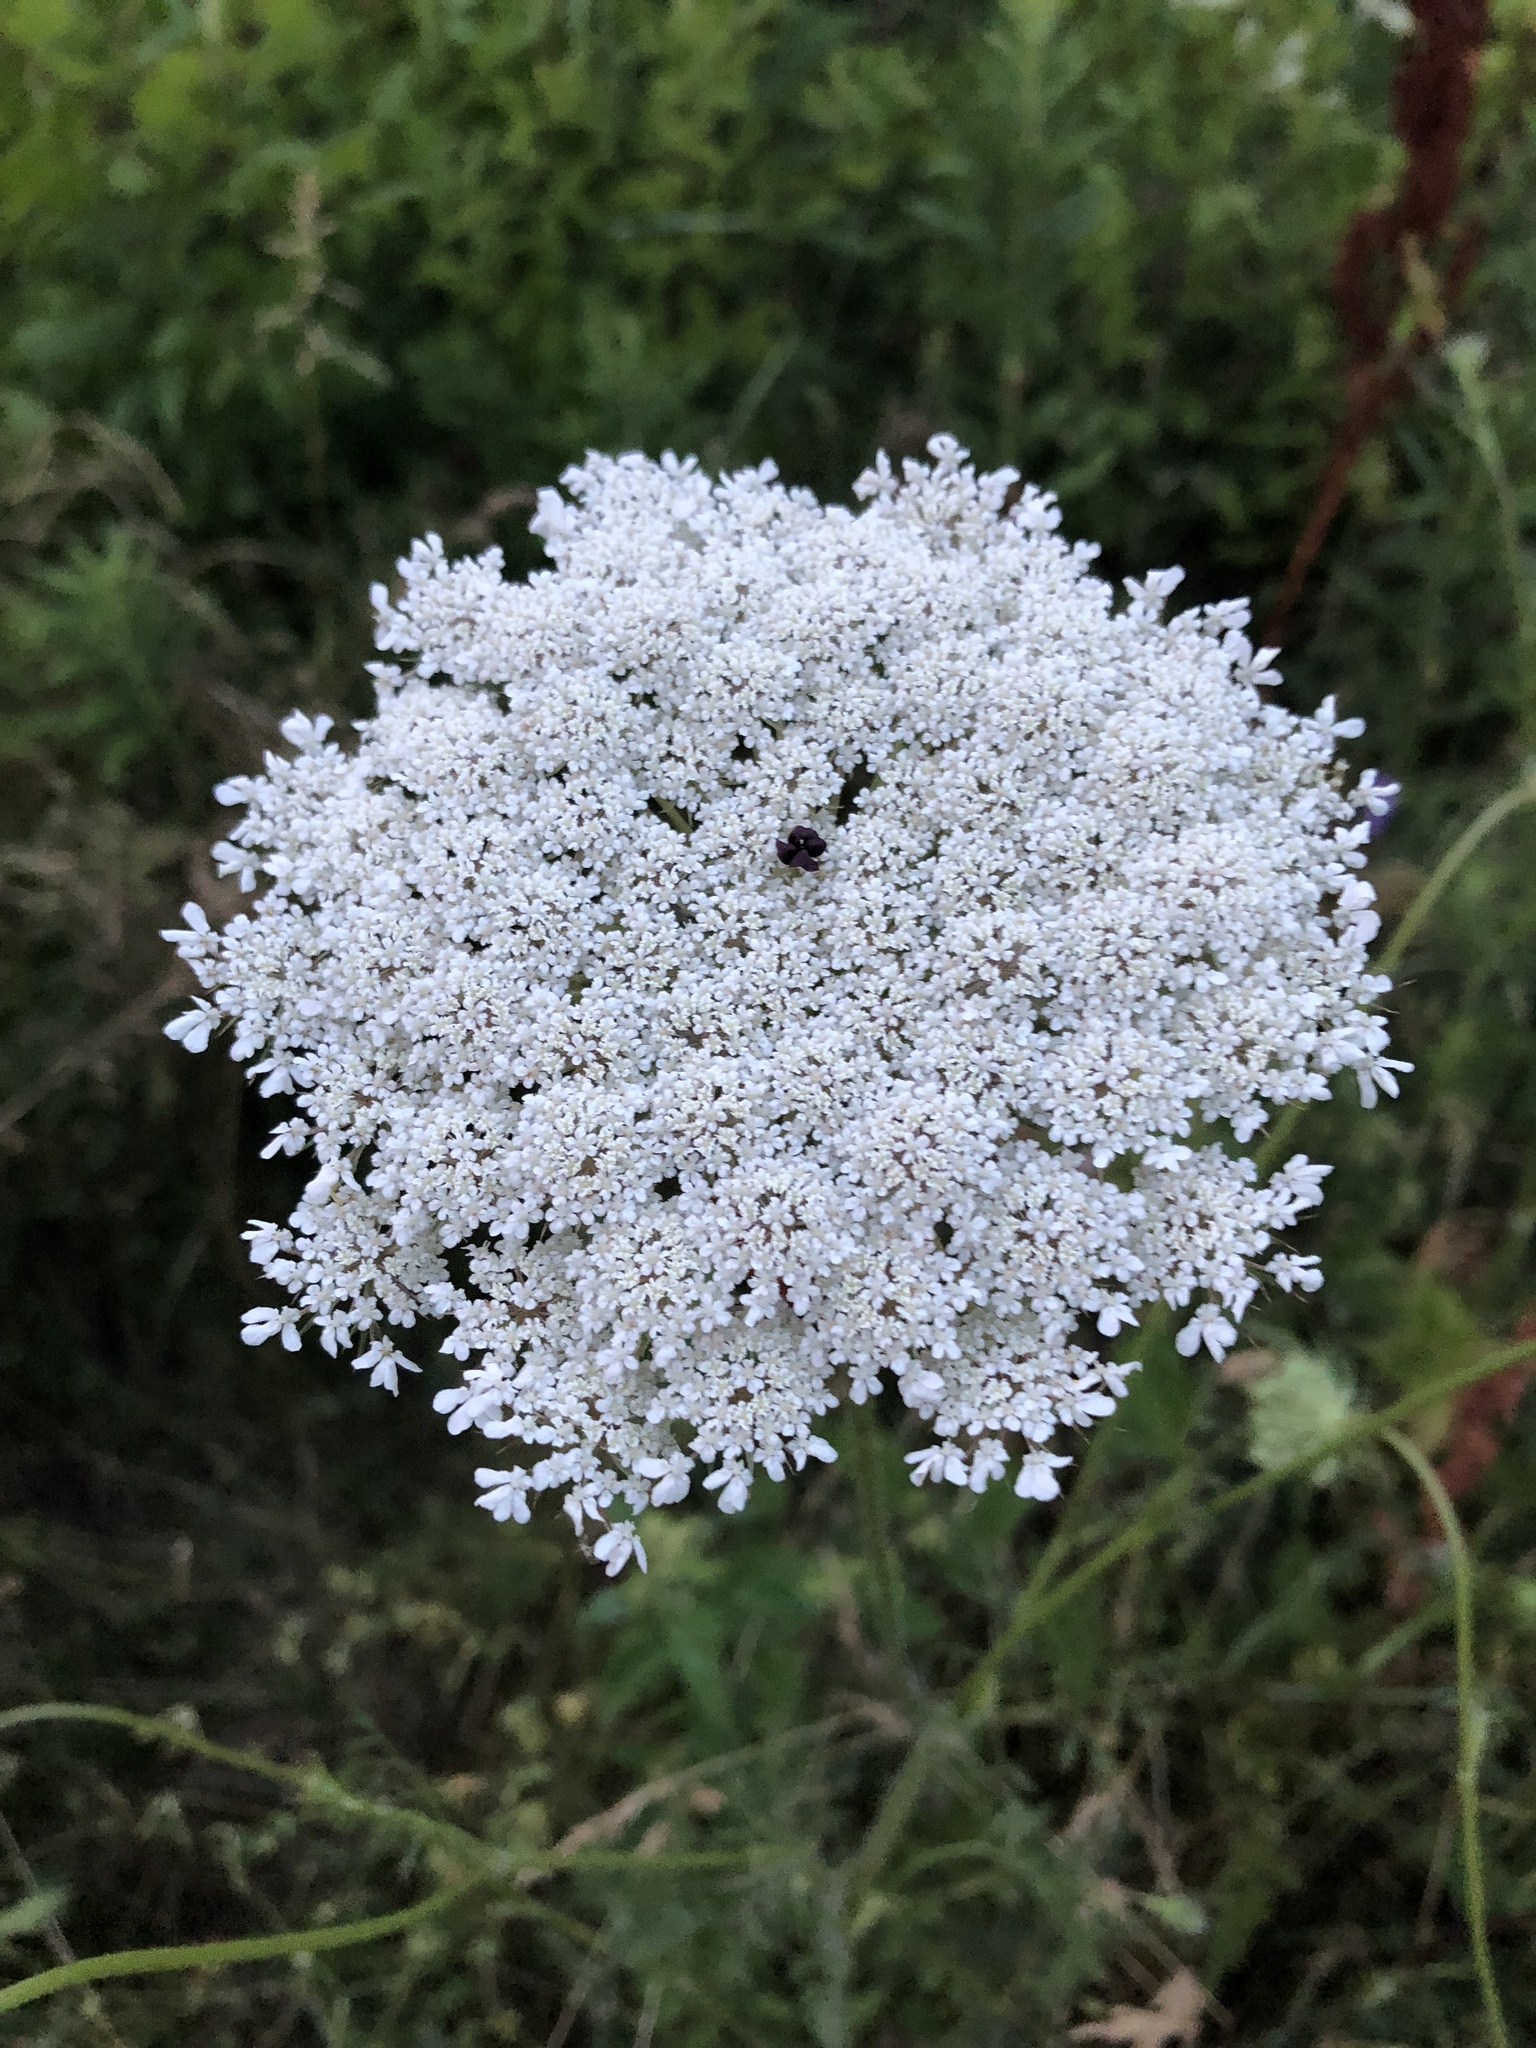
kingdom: Plantae
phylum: Tracheophyta
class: Magnoliopsida
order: Apiales
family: Apiaceae
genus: Daucus
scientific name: Daucus carota
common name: Wild carrot
